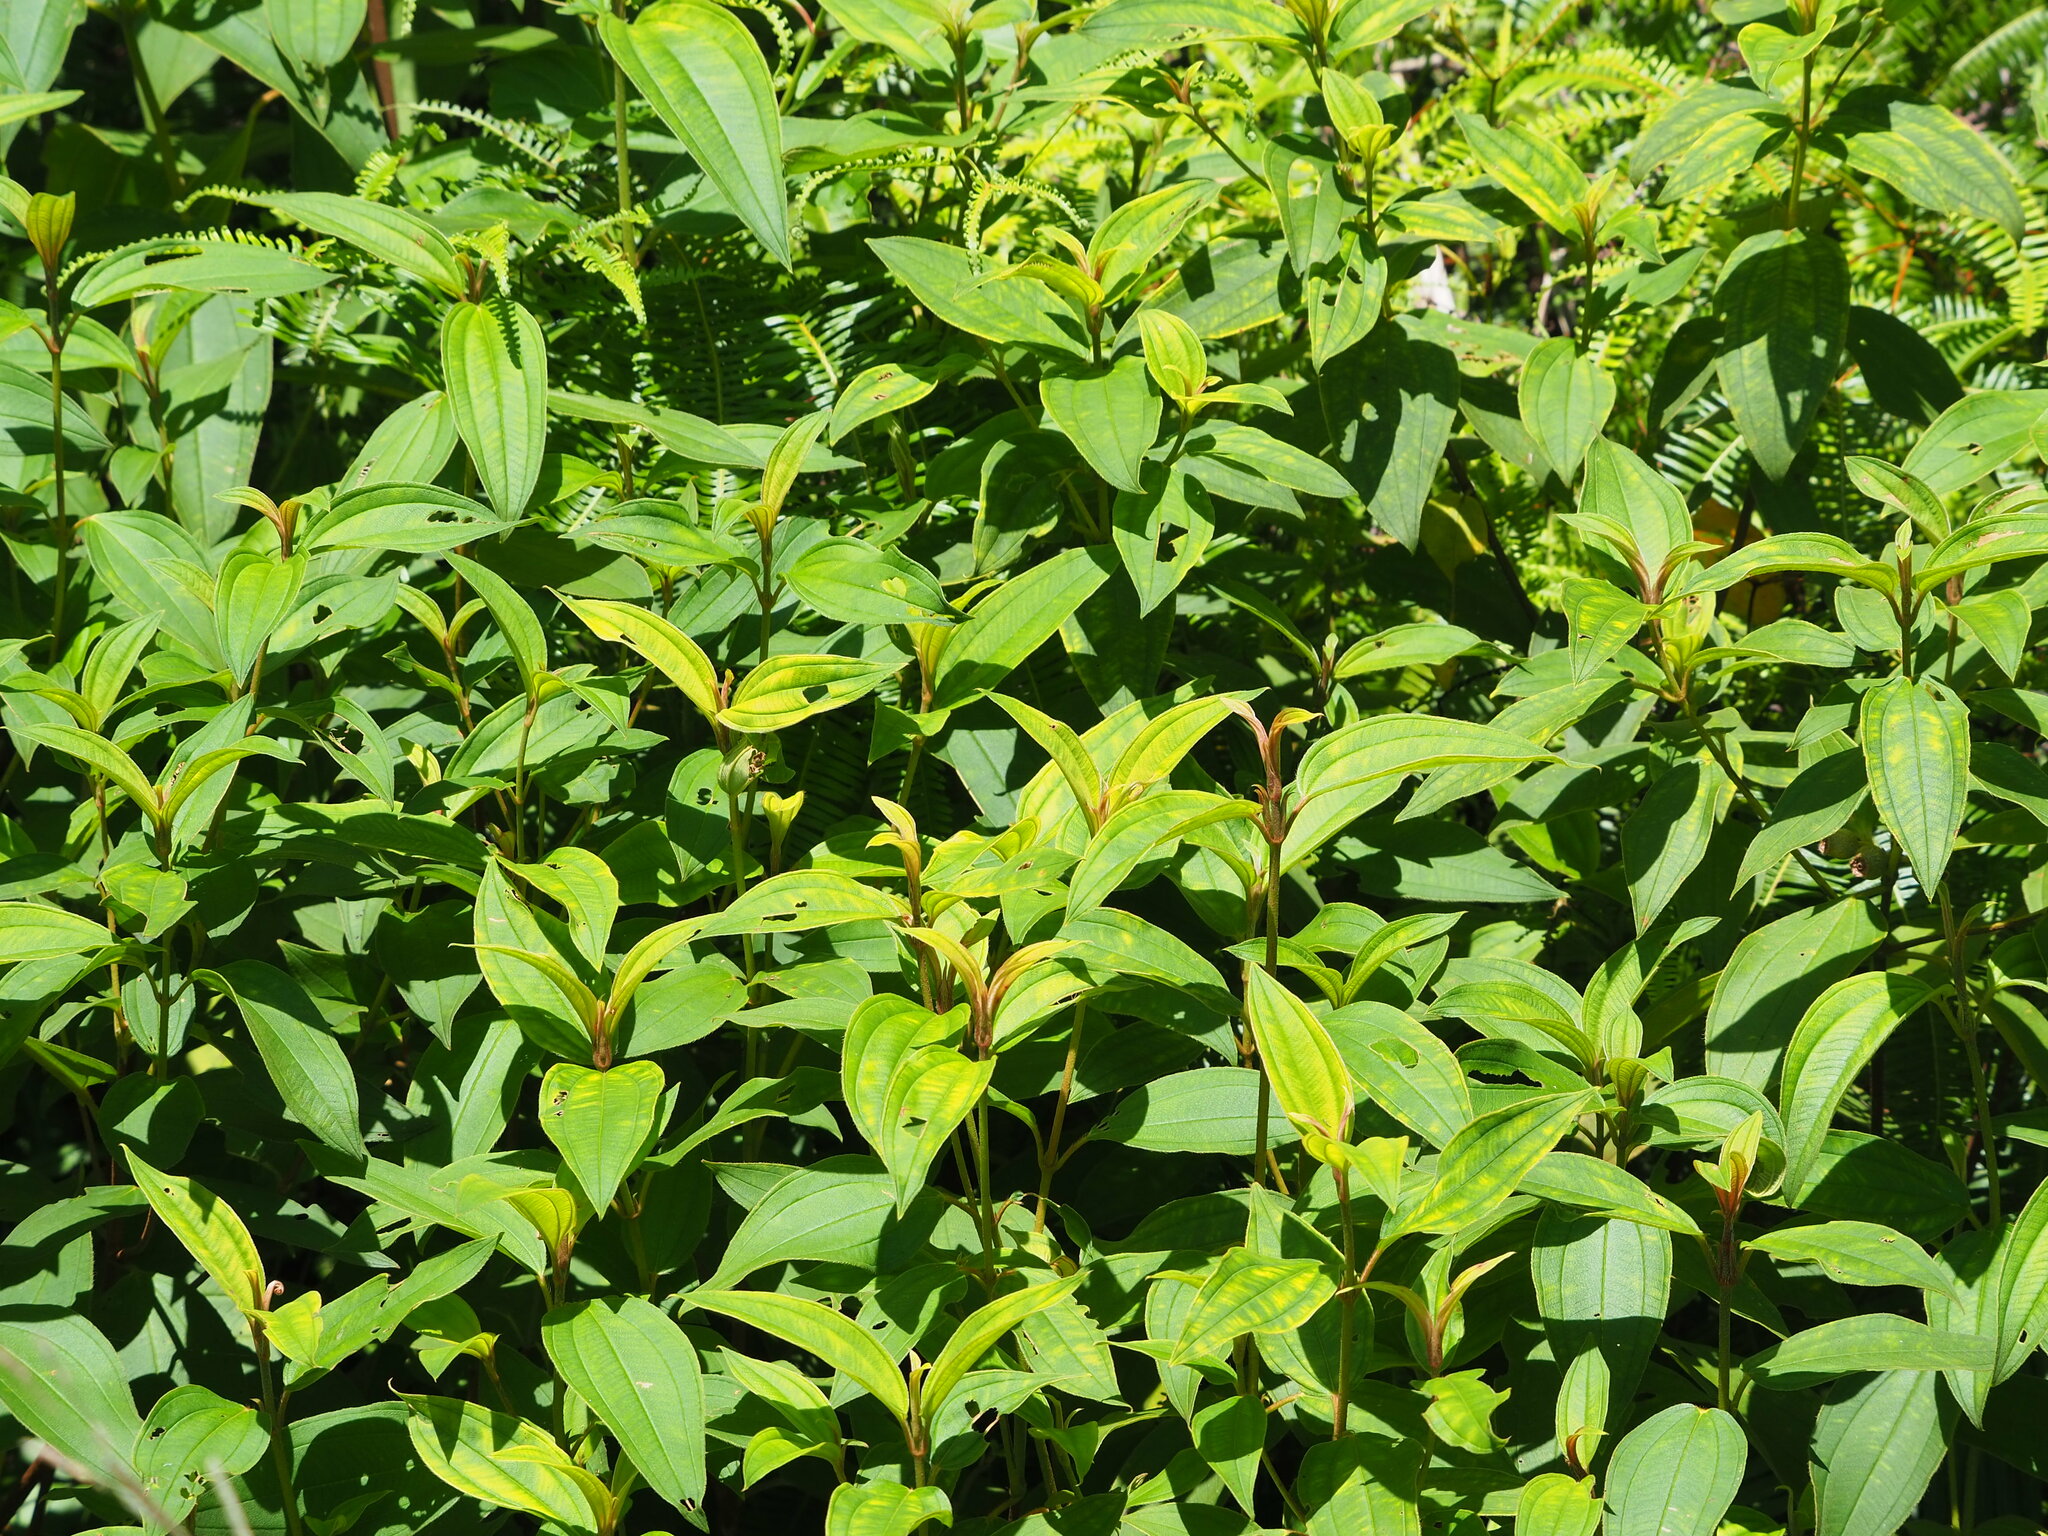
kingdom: Plantae
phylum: Tracheophyta
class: Magnoliopsida
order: Myrtales
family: Melastomataceae
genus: Melastoma
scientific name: Melastoma malabathricum
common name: Indian-rhododendron
